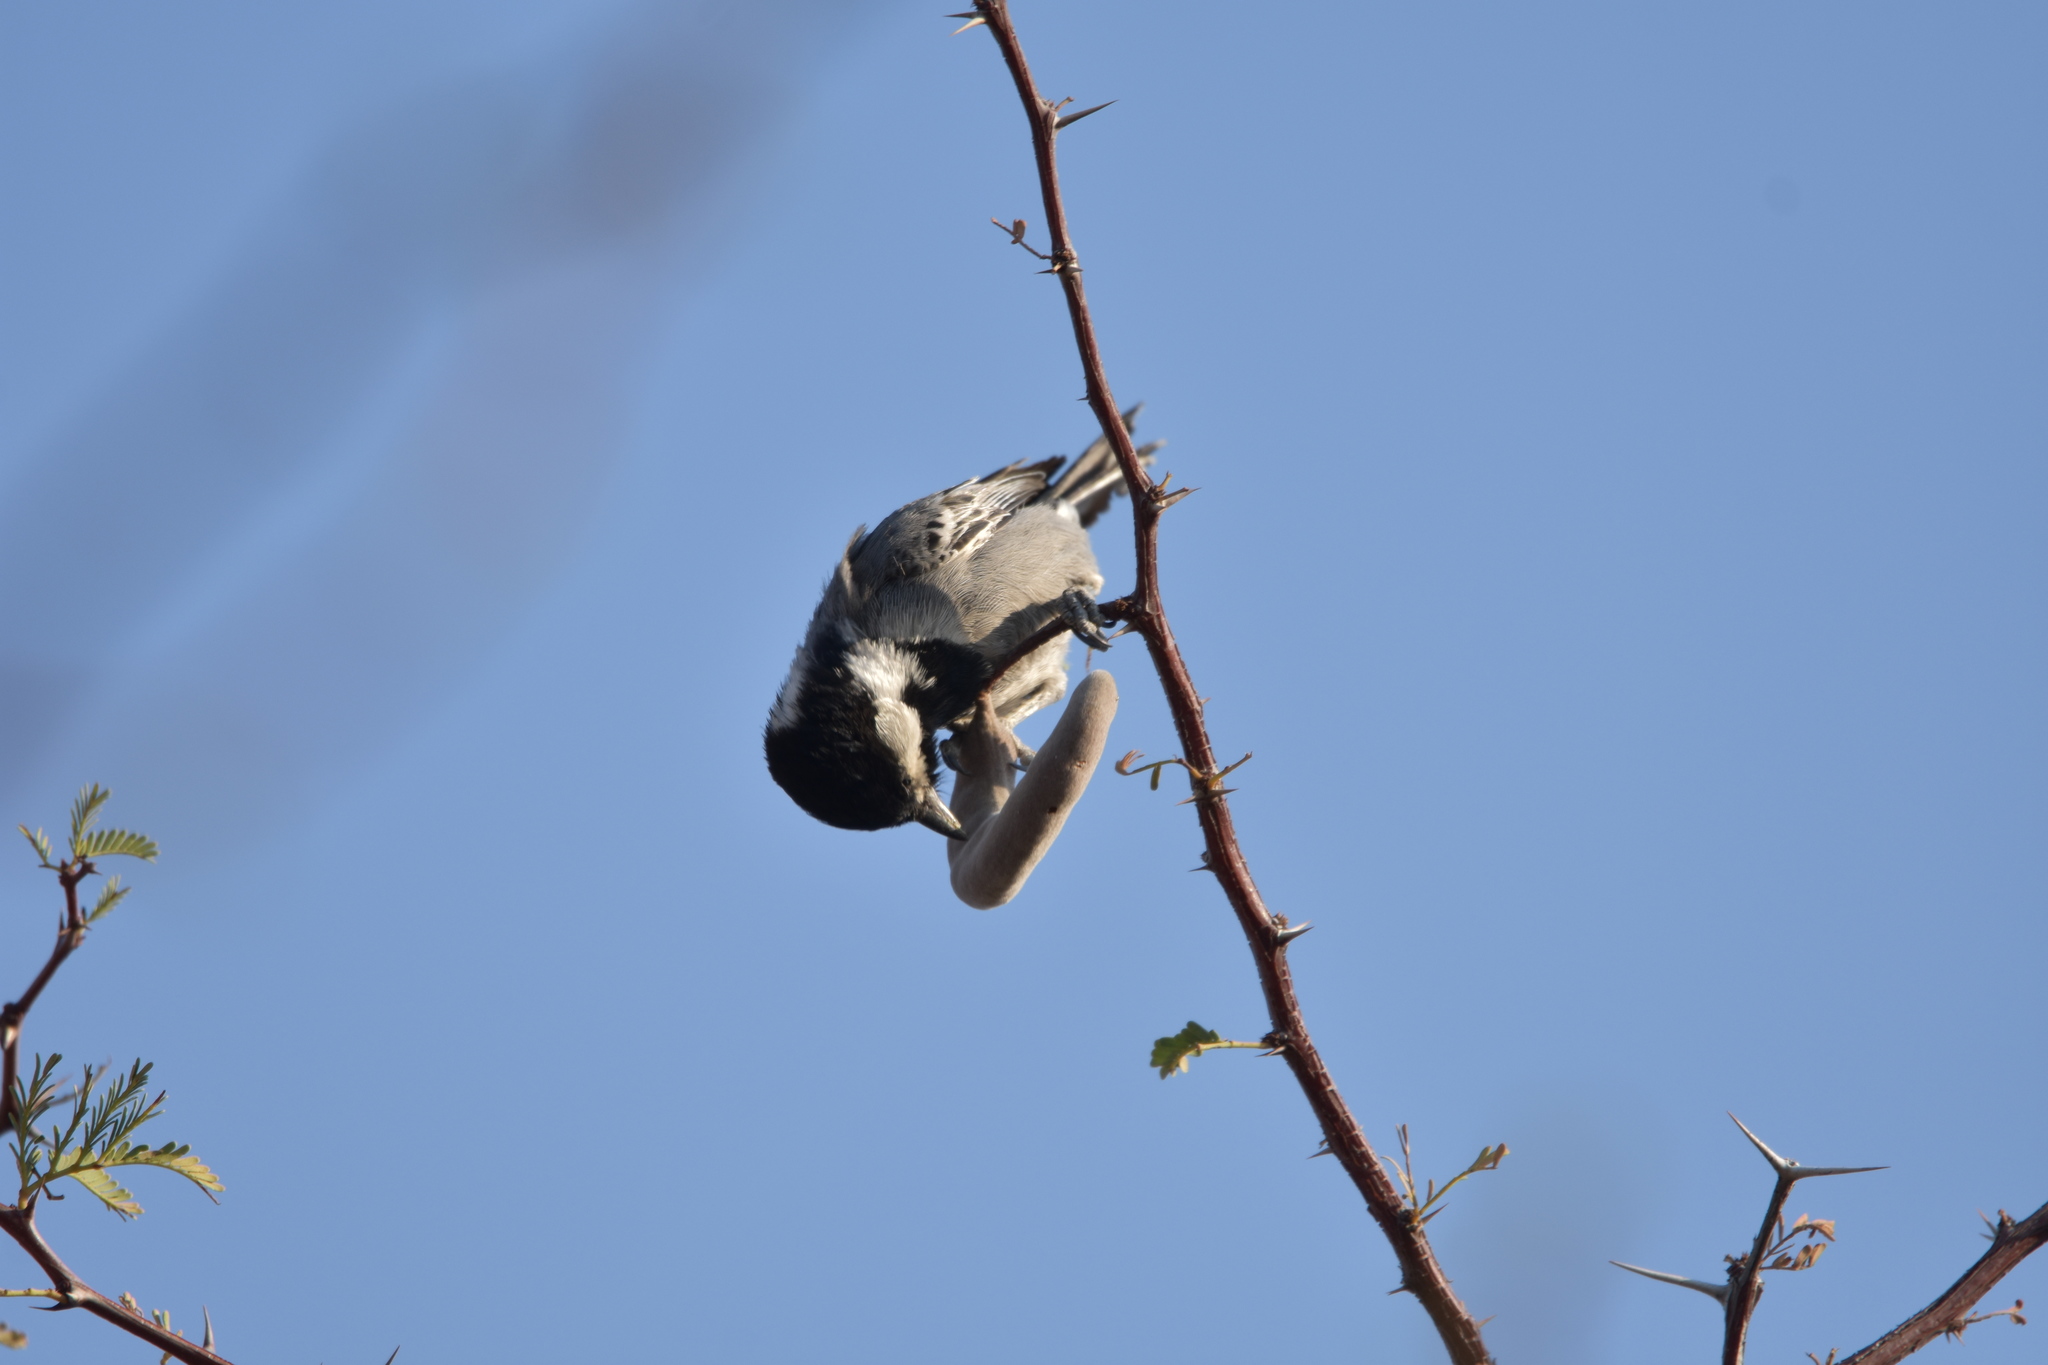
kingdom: Animalia
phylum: Chordata
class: Aves
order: Passeriformes
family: Paridae
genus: Parus
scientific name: Parus cinerascens
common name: Ashy tit
